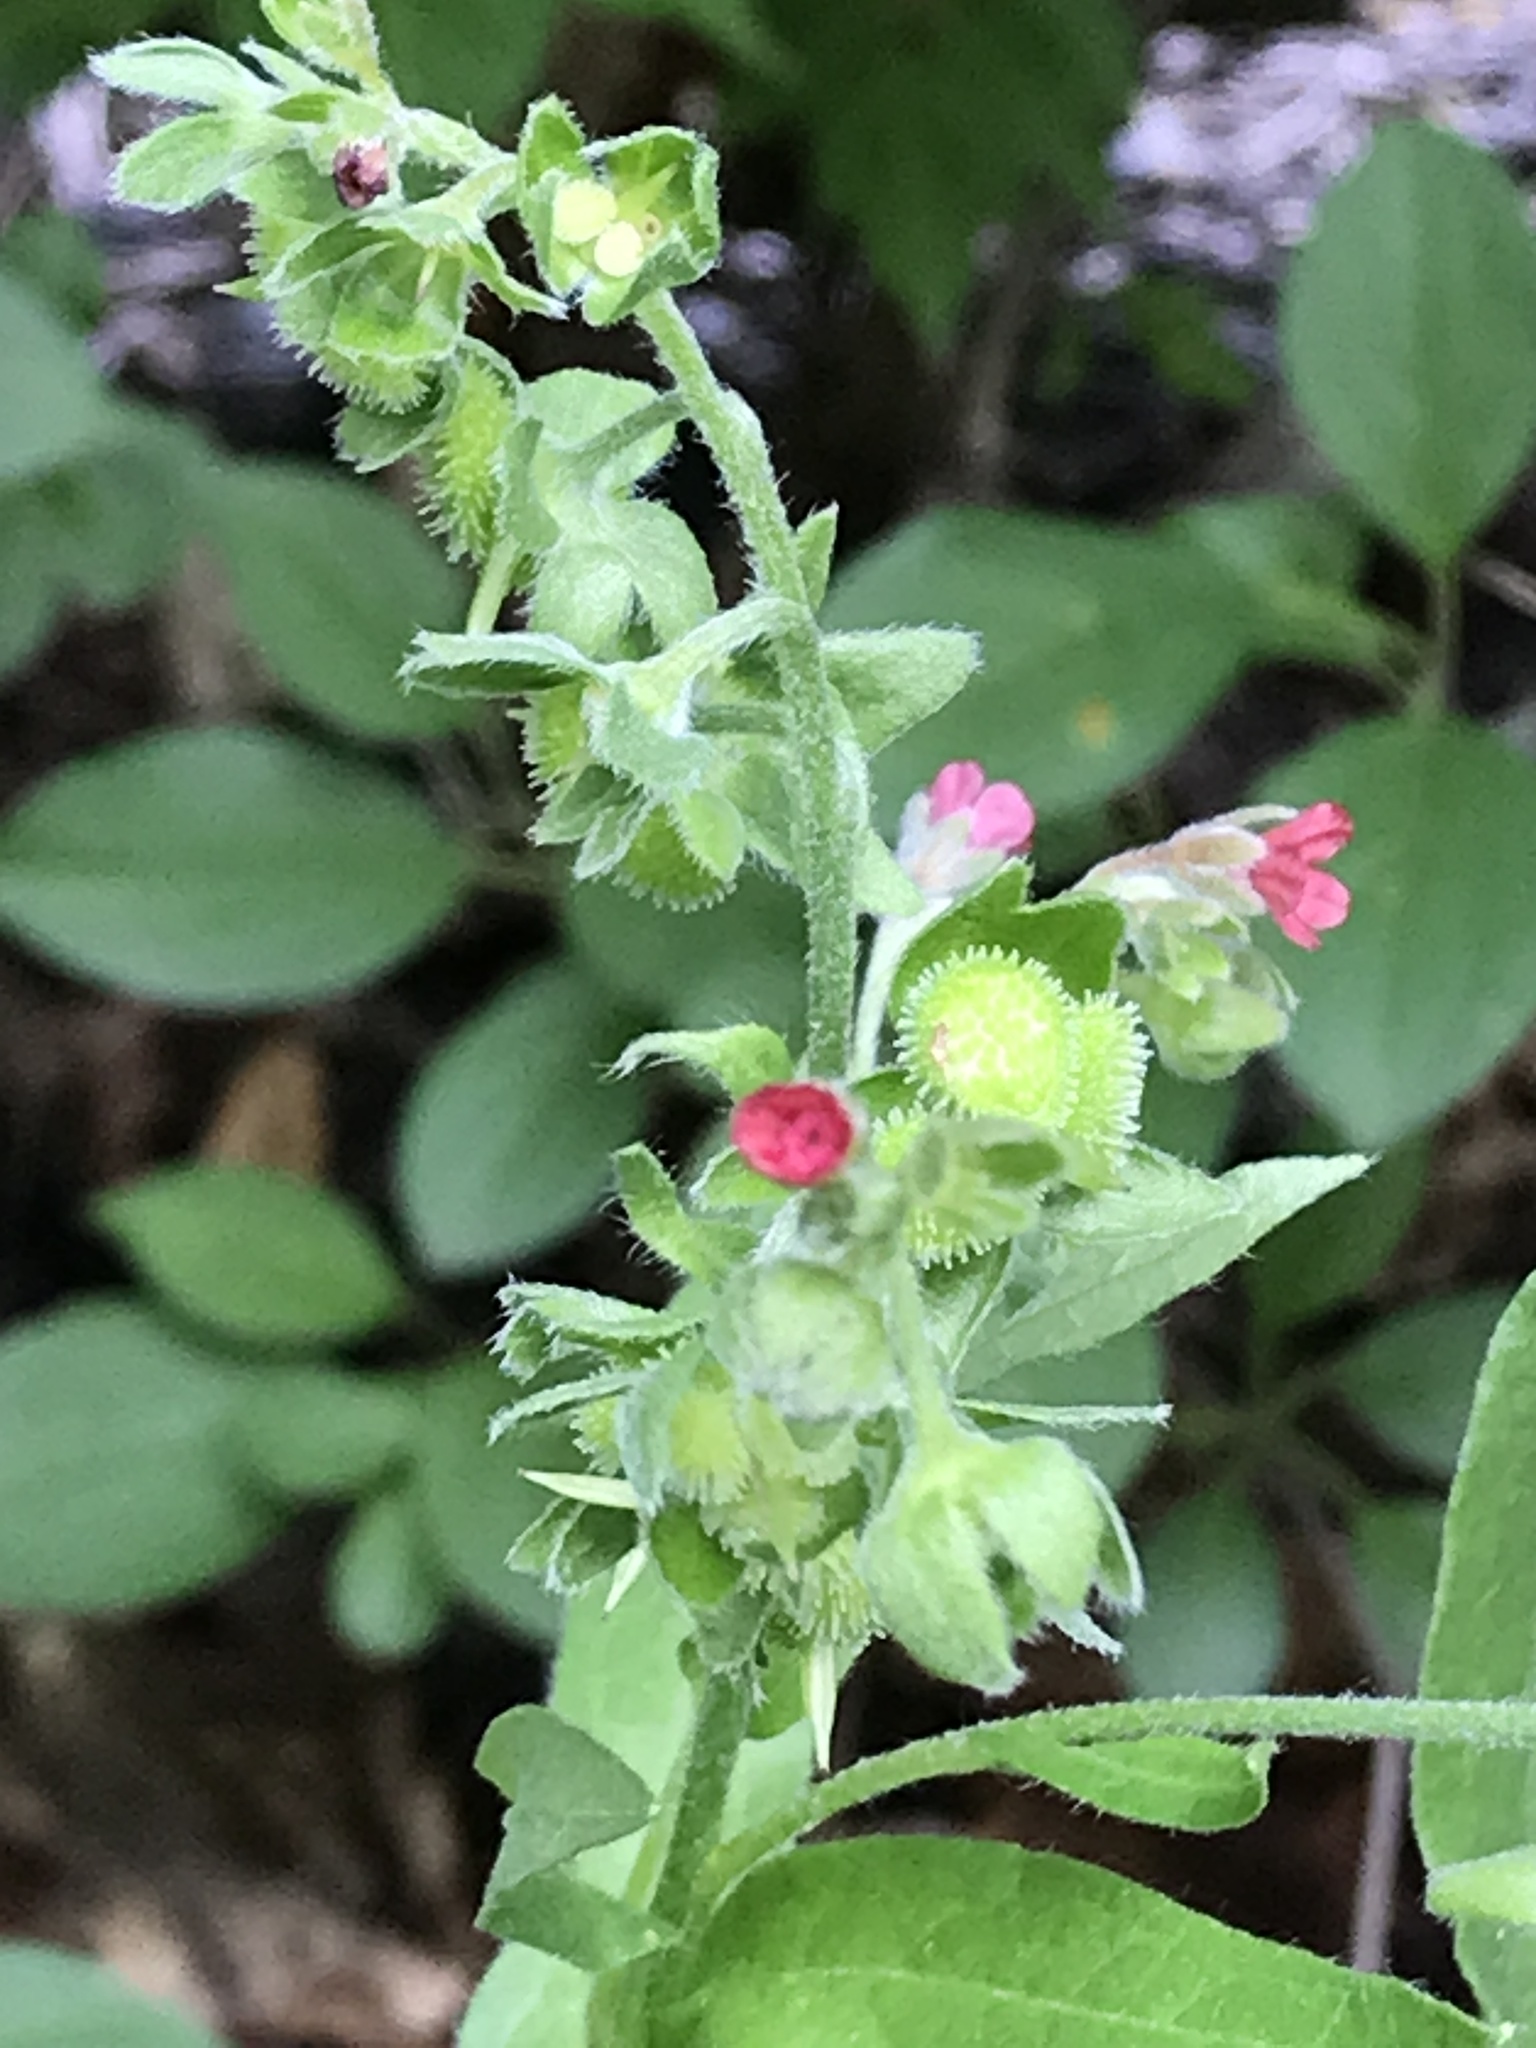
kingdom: Plantae
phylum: Tracheophyta
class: Magnoliopsida
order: Boraginales
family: Boraginaceae
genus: Cynoglossum
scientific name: Cynoglossum officinale
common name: Hound's-tongue
